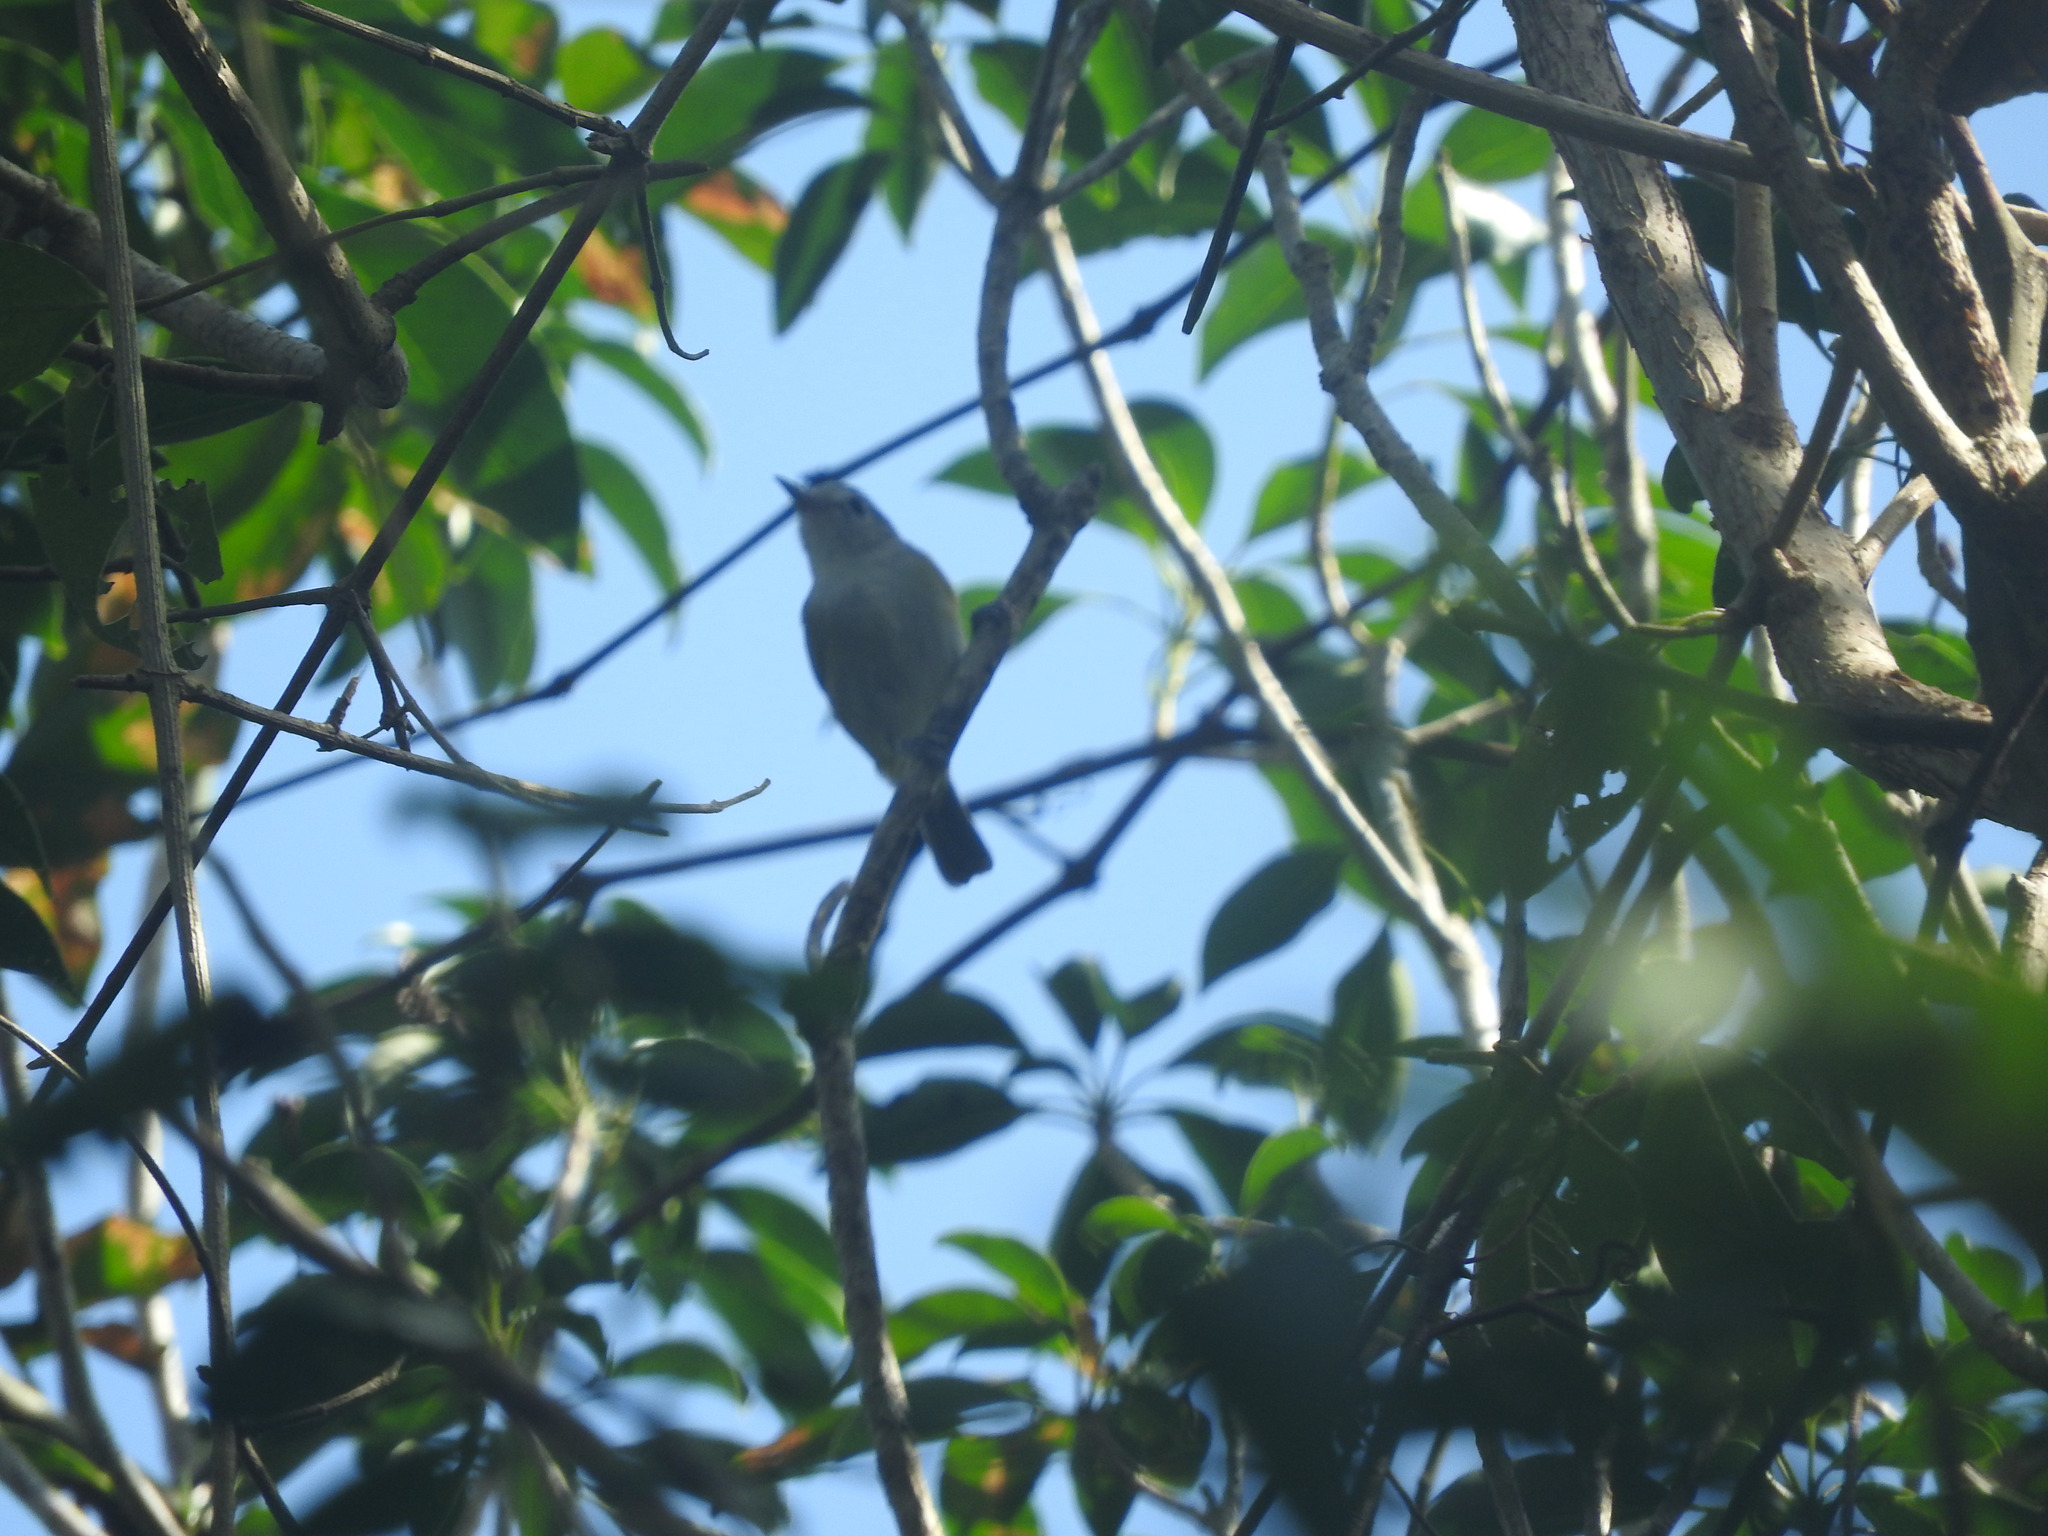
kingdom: Animalia
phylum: Chordata
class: Aves
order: Passeriformes
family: Vireonidae
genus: Vireo
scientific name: Vireo pallens
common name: Mangrove vireo
